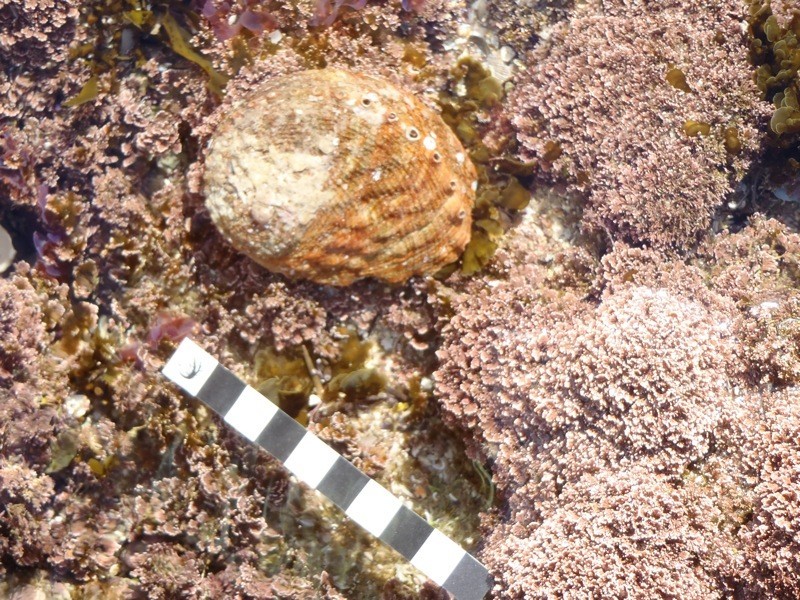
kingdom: Animalia
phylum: Mollusca
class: Gastropoda
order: Lepetellida
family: Haliotidae
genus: Haliotis
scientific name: Haliotis rubra
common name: Blacklip abalone
